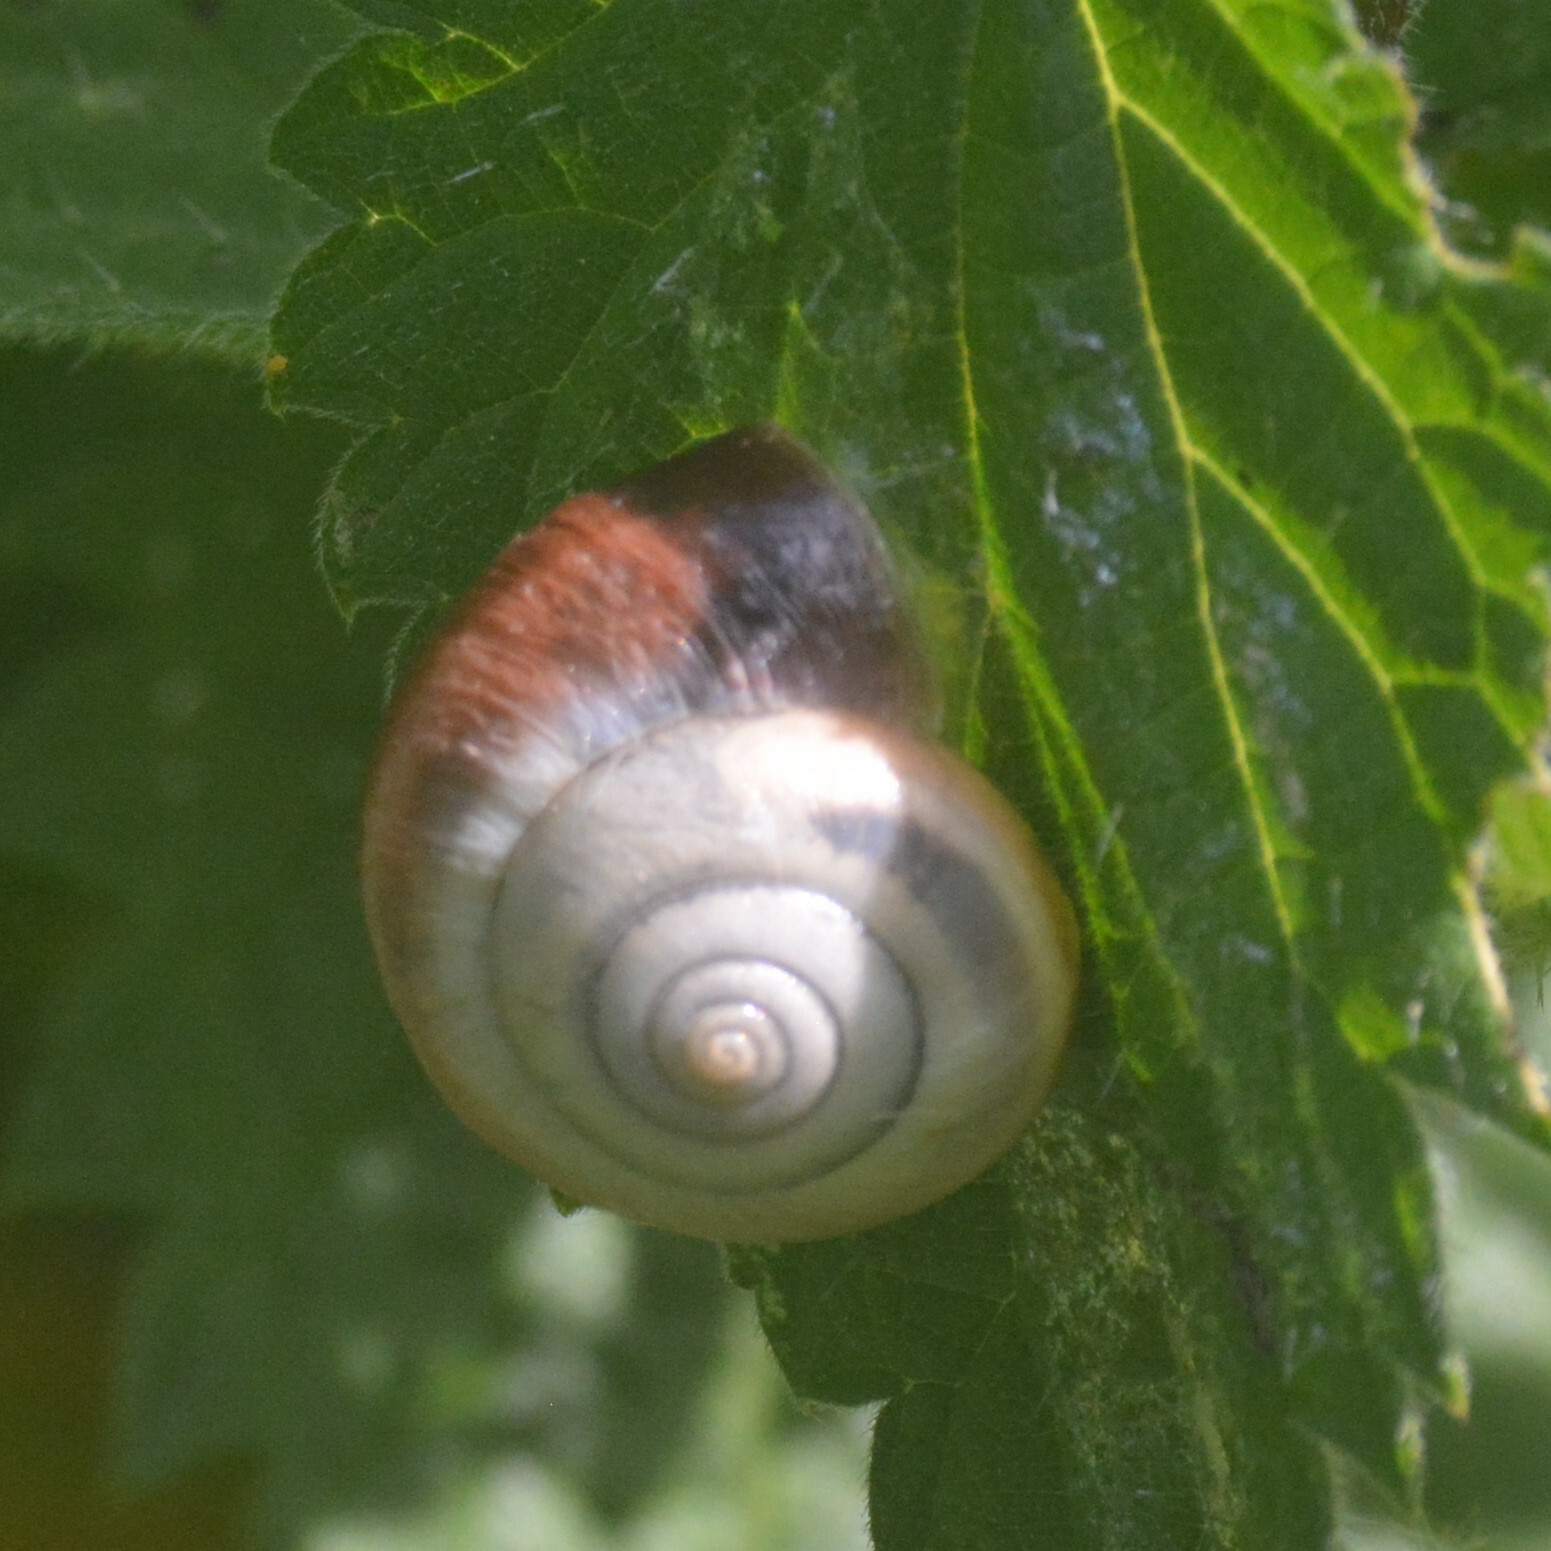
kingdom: Animalia
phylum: Mollusca
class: Gastropoda
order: Stylommatophora
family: Hygromiidae
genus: Monacha
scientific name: Monacha cantiana
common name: Kentish snail
